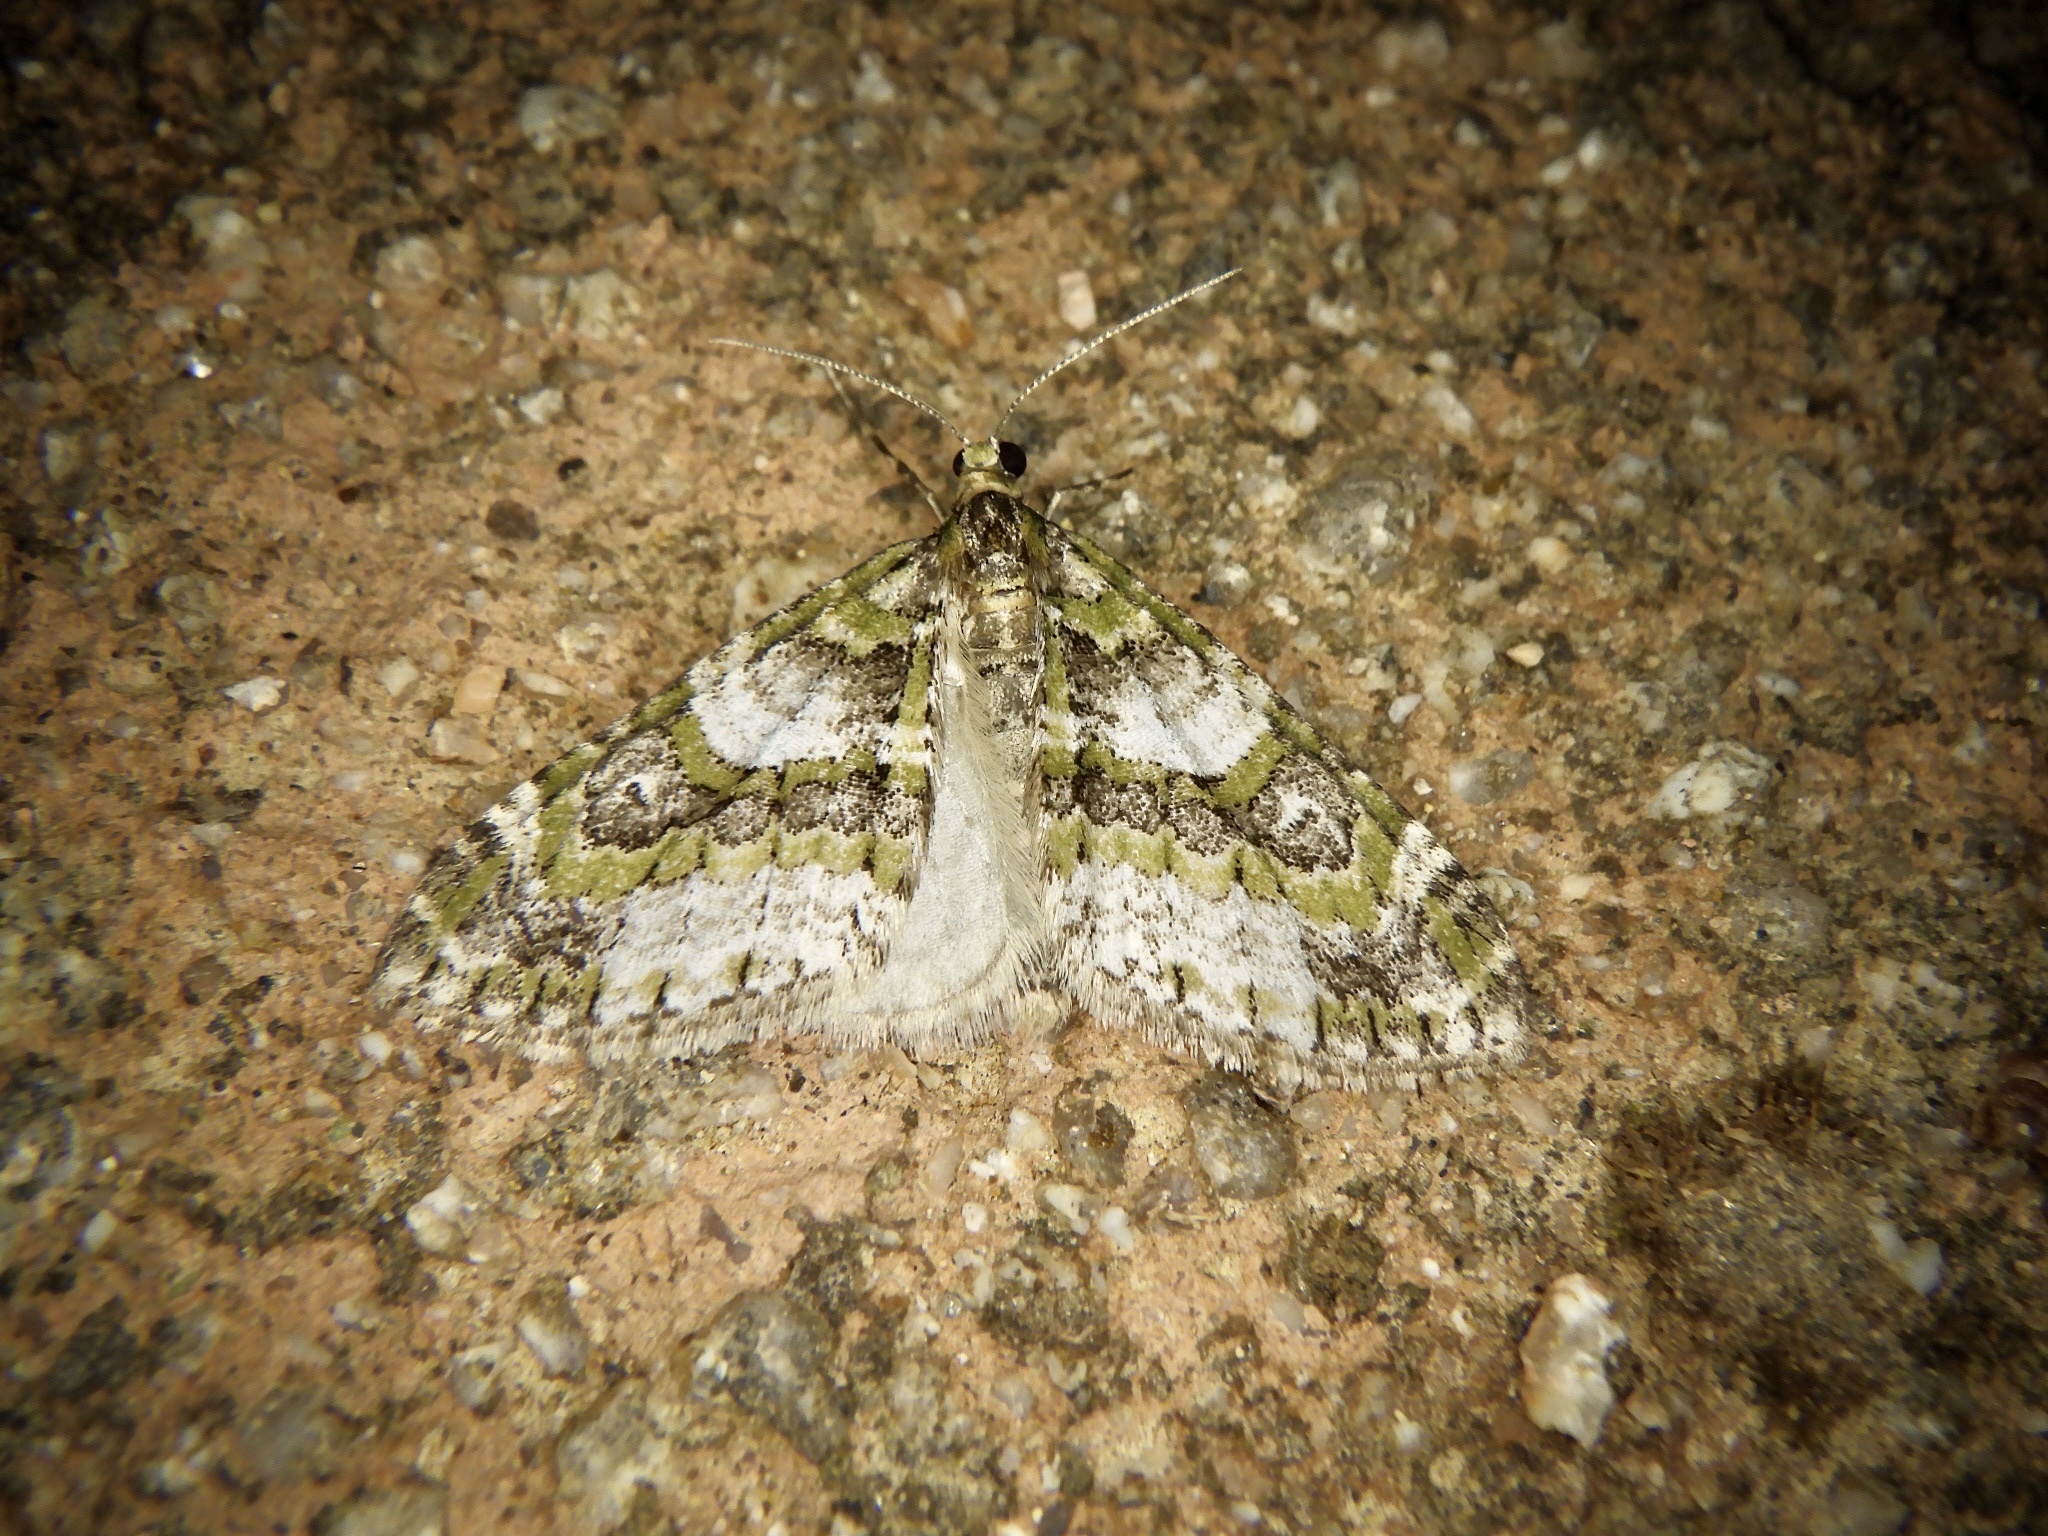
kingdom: Animalia
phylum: Arthropoda
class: Insecta
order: Lepidoptera
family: Geometridae
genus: Esakiopteryx
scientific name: Esakiopteryx volitans
